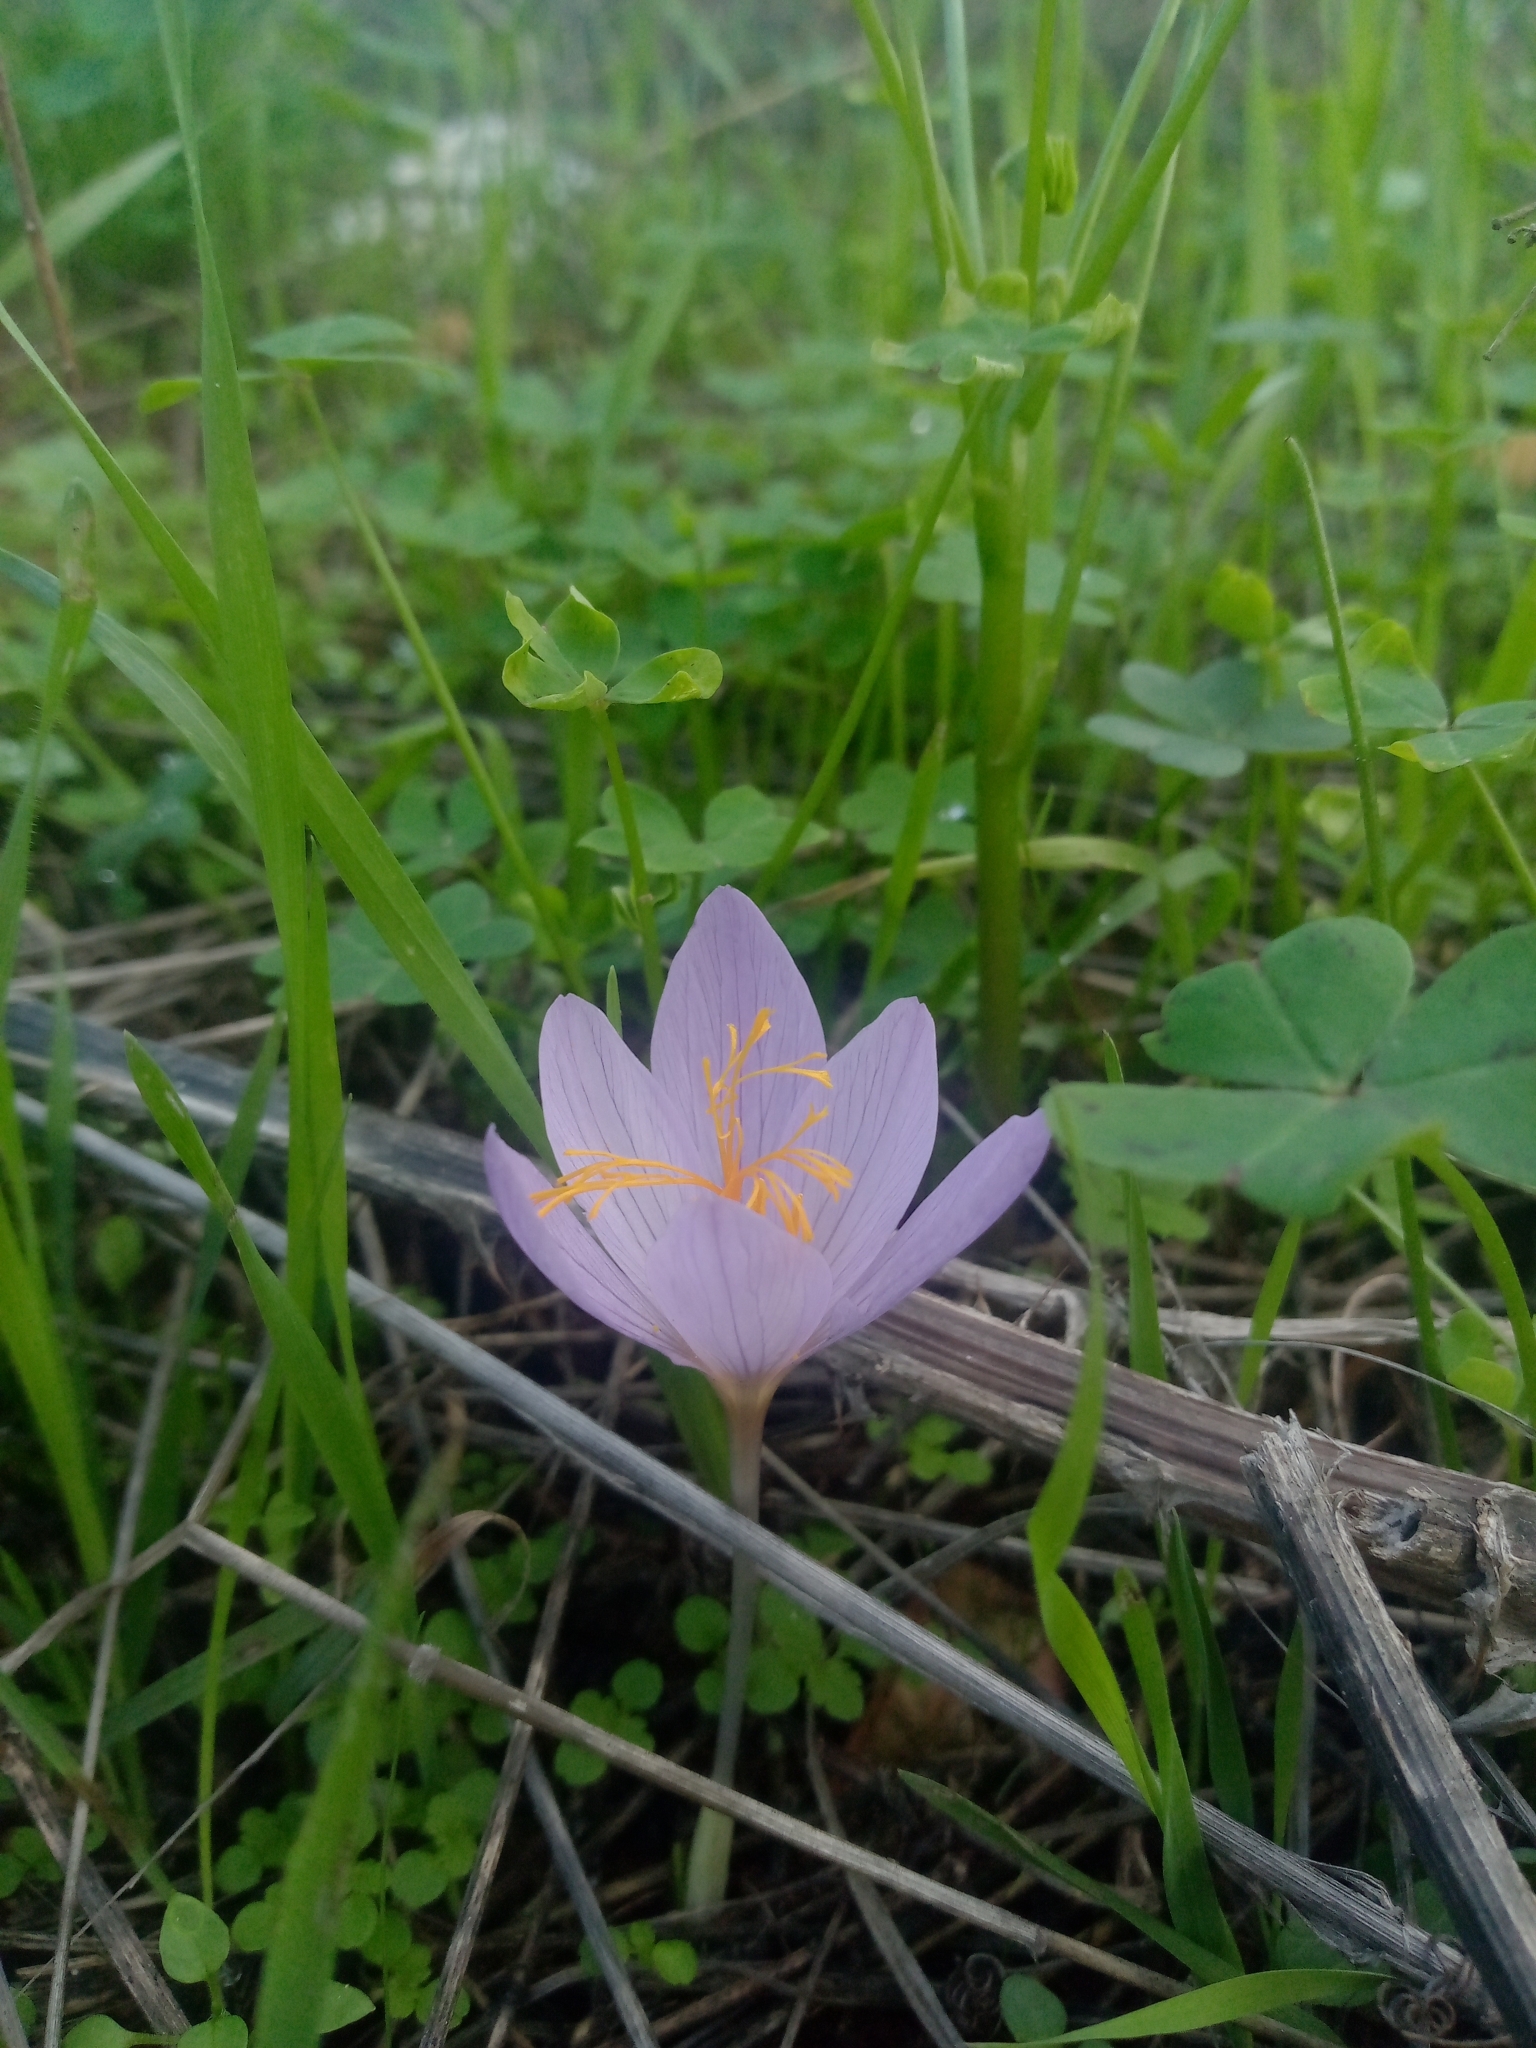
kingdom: Plantae
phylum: Tracheophyta
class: Liliopsida
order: Asparagales
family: Iridaceae
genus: Crocus
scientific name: Crocus serotinus
